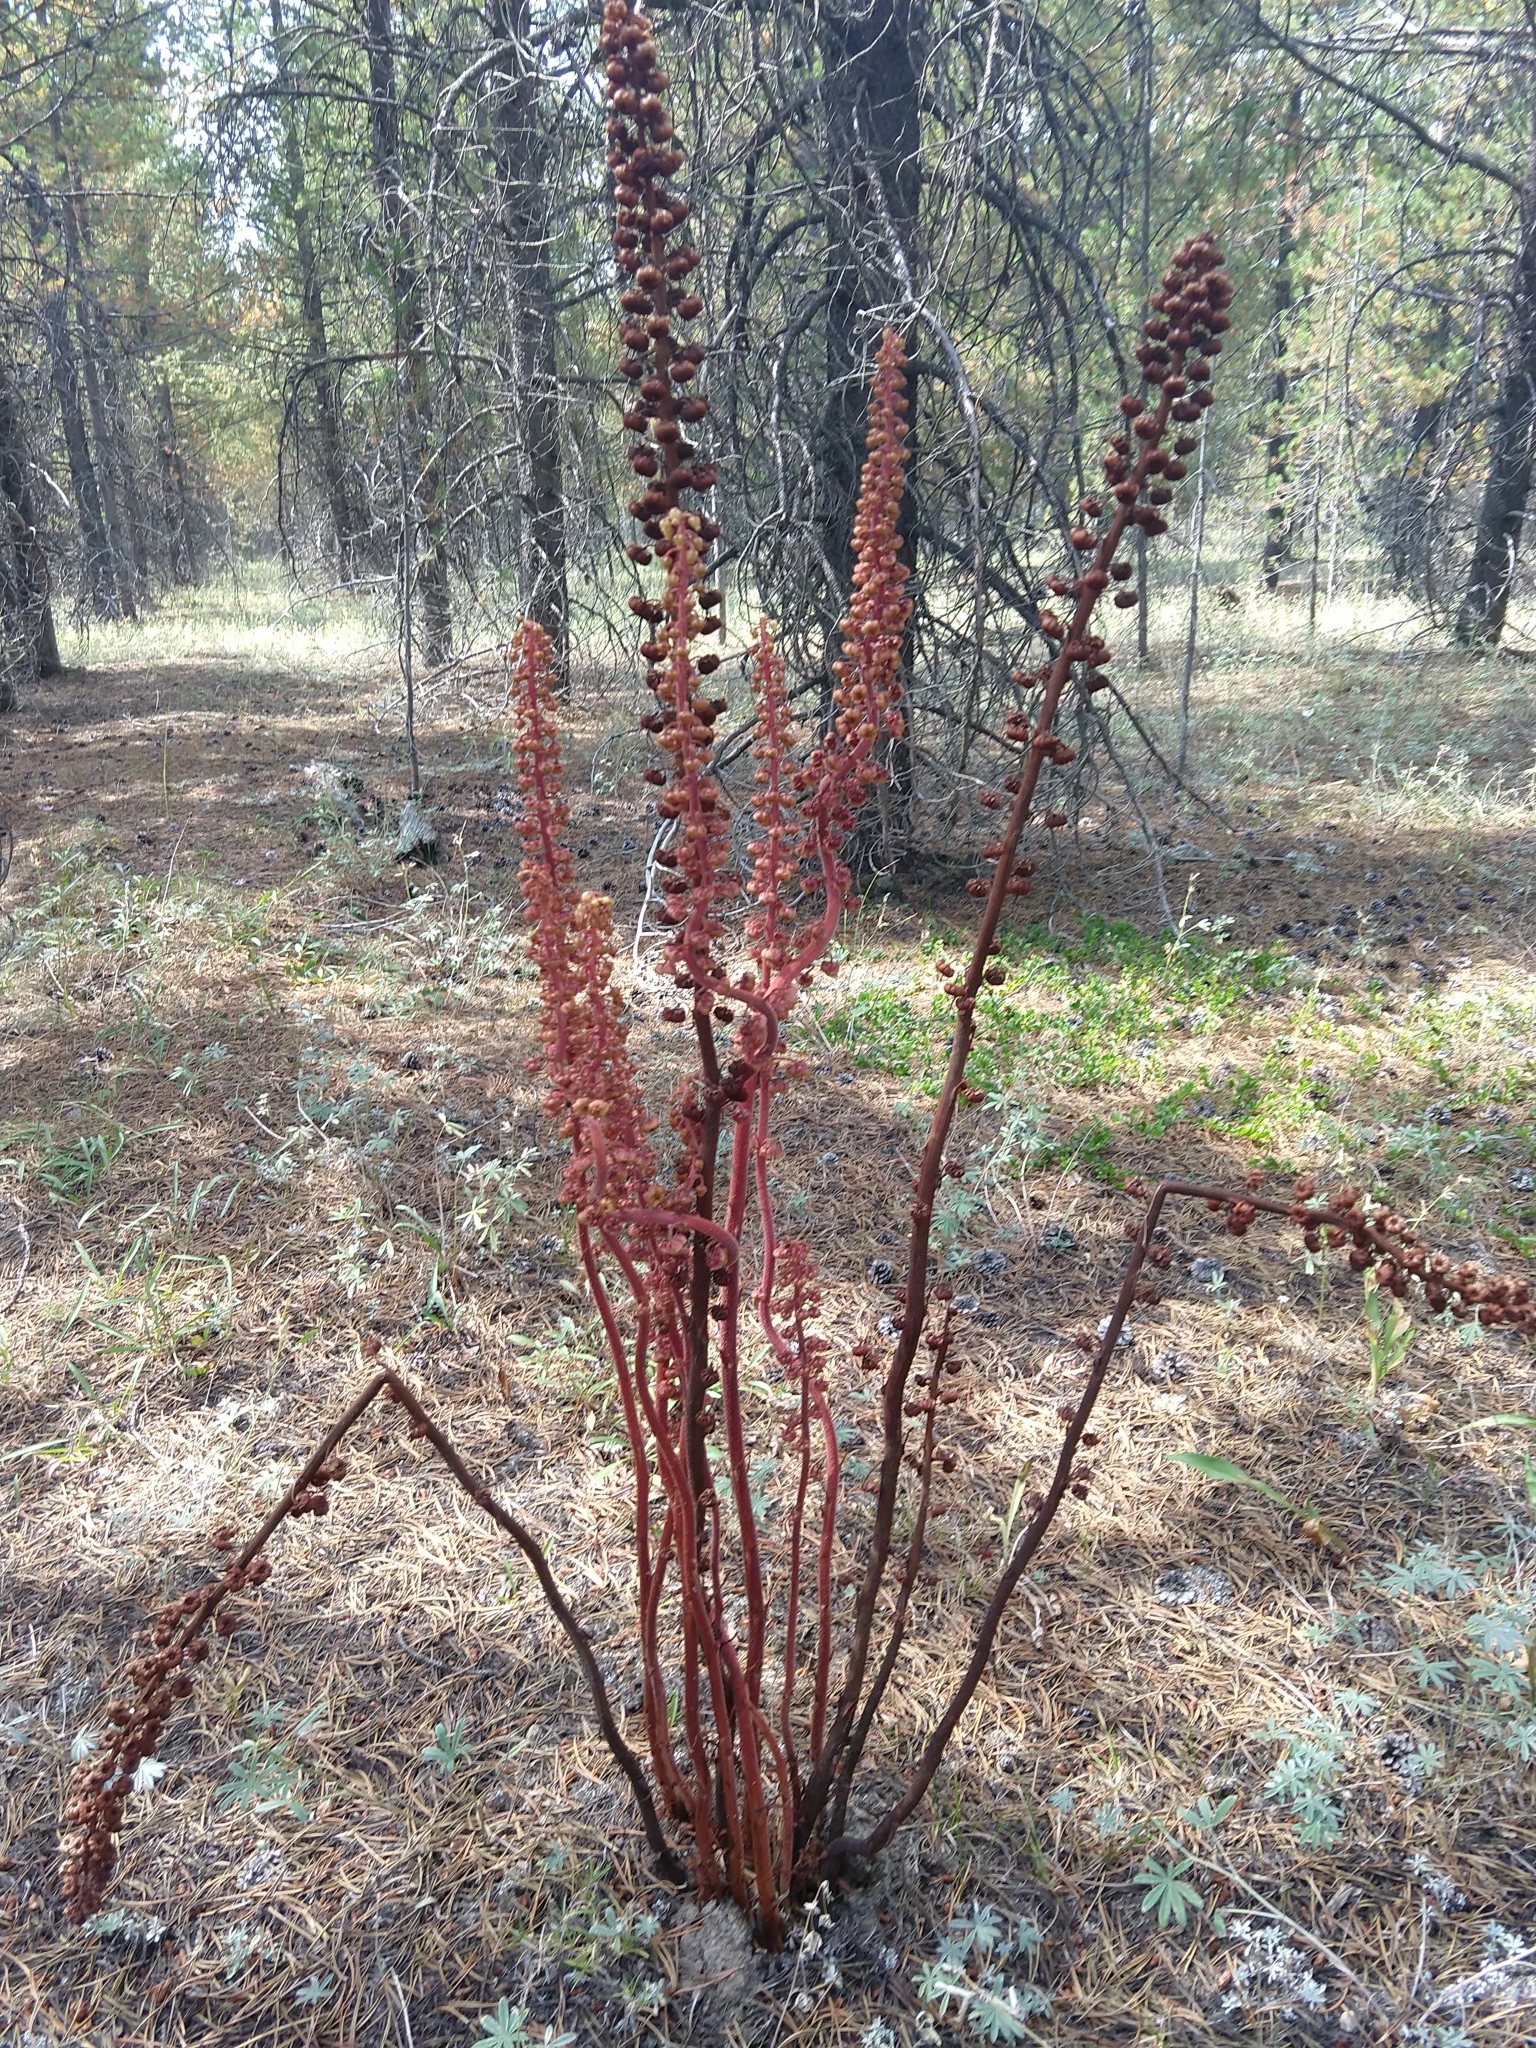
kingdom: Plantae
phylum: Tracheophyta
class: Magnoliopsida
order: Ericales
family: Ericaceae
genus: Pterospora
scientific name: Pterospora andromedea
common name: Giant bird's-nest
